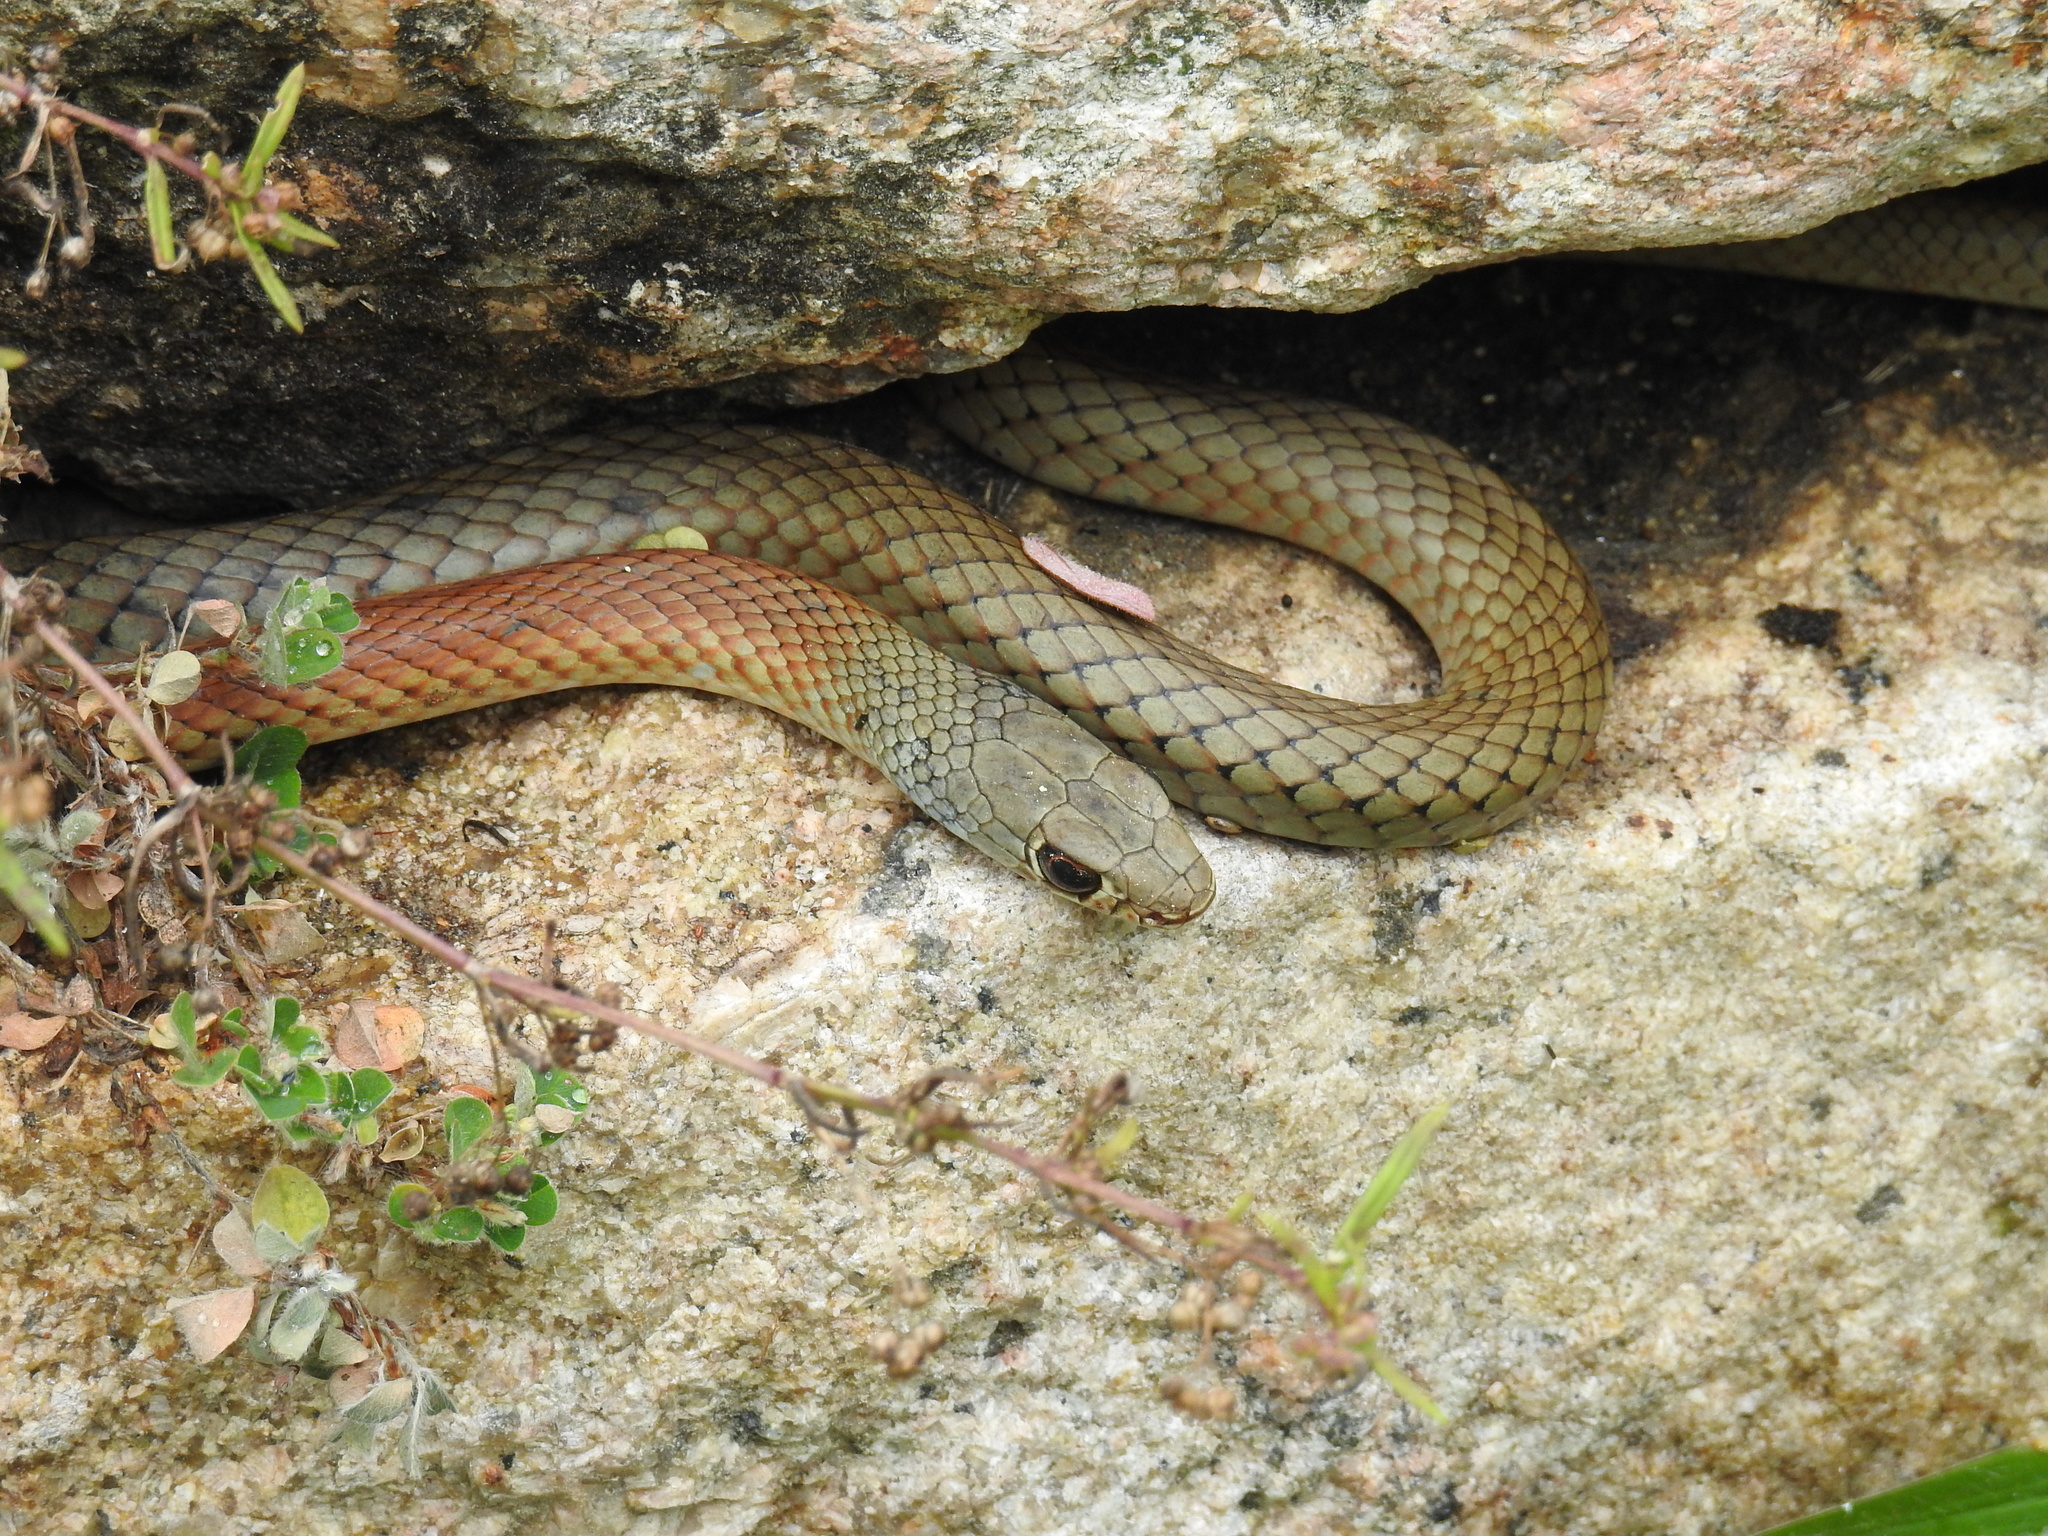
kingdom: Animalia
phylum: Chordata
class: Squamata
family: Elapidae
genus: Demansia
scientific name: Demansia psammophis
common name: Yellow-faced whip snake
